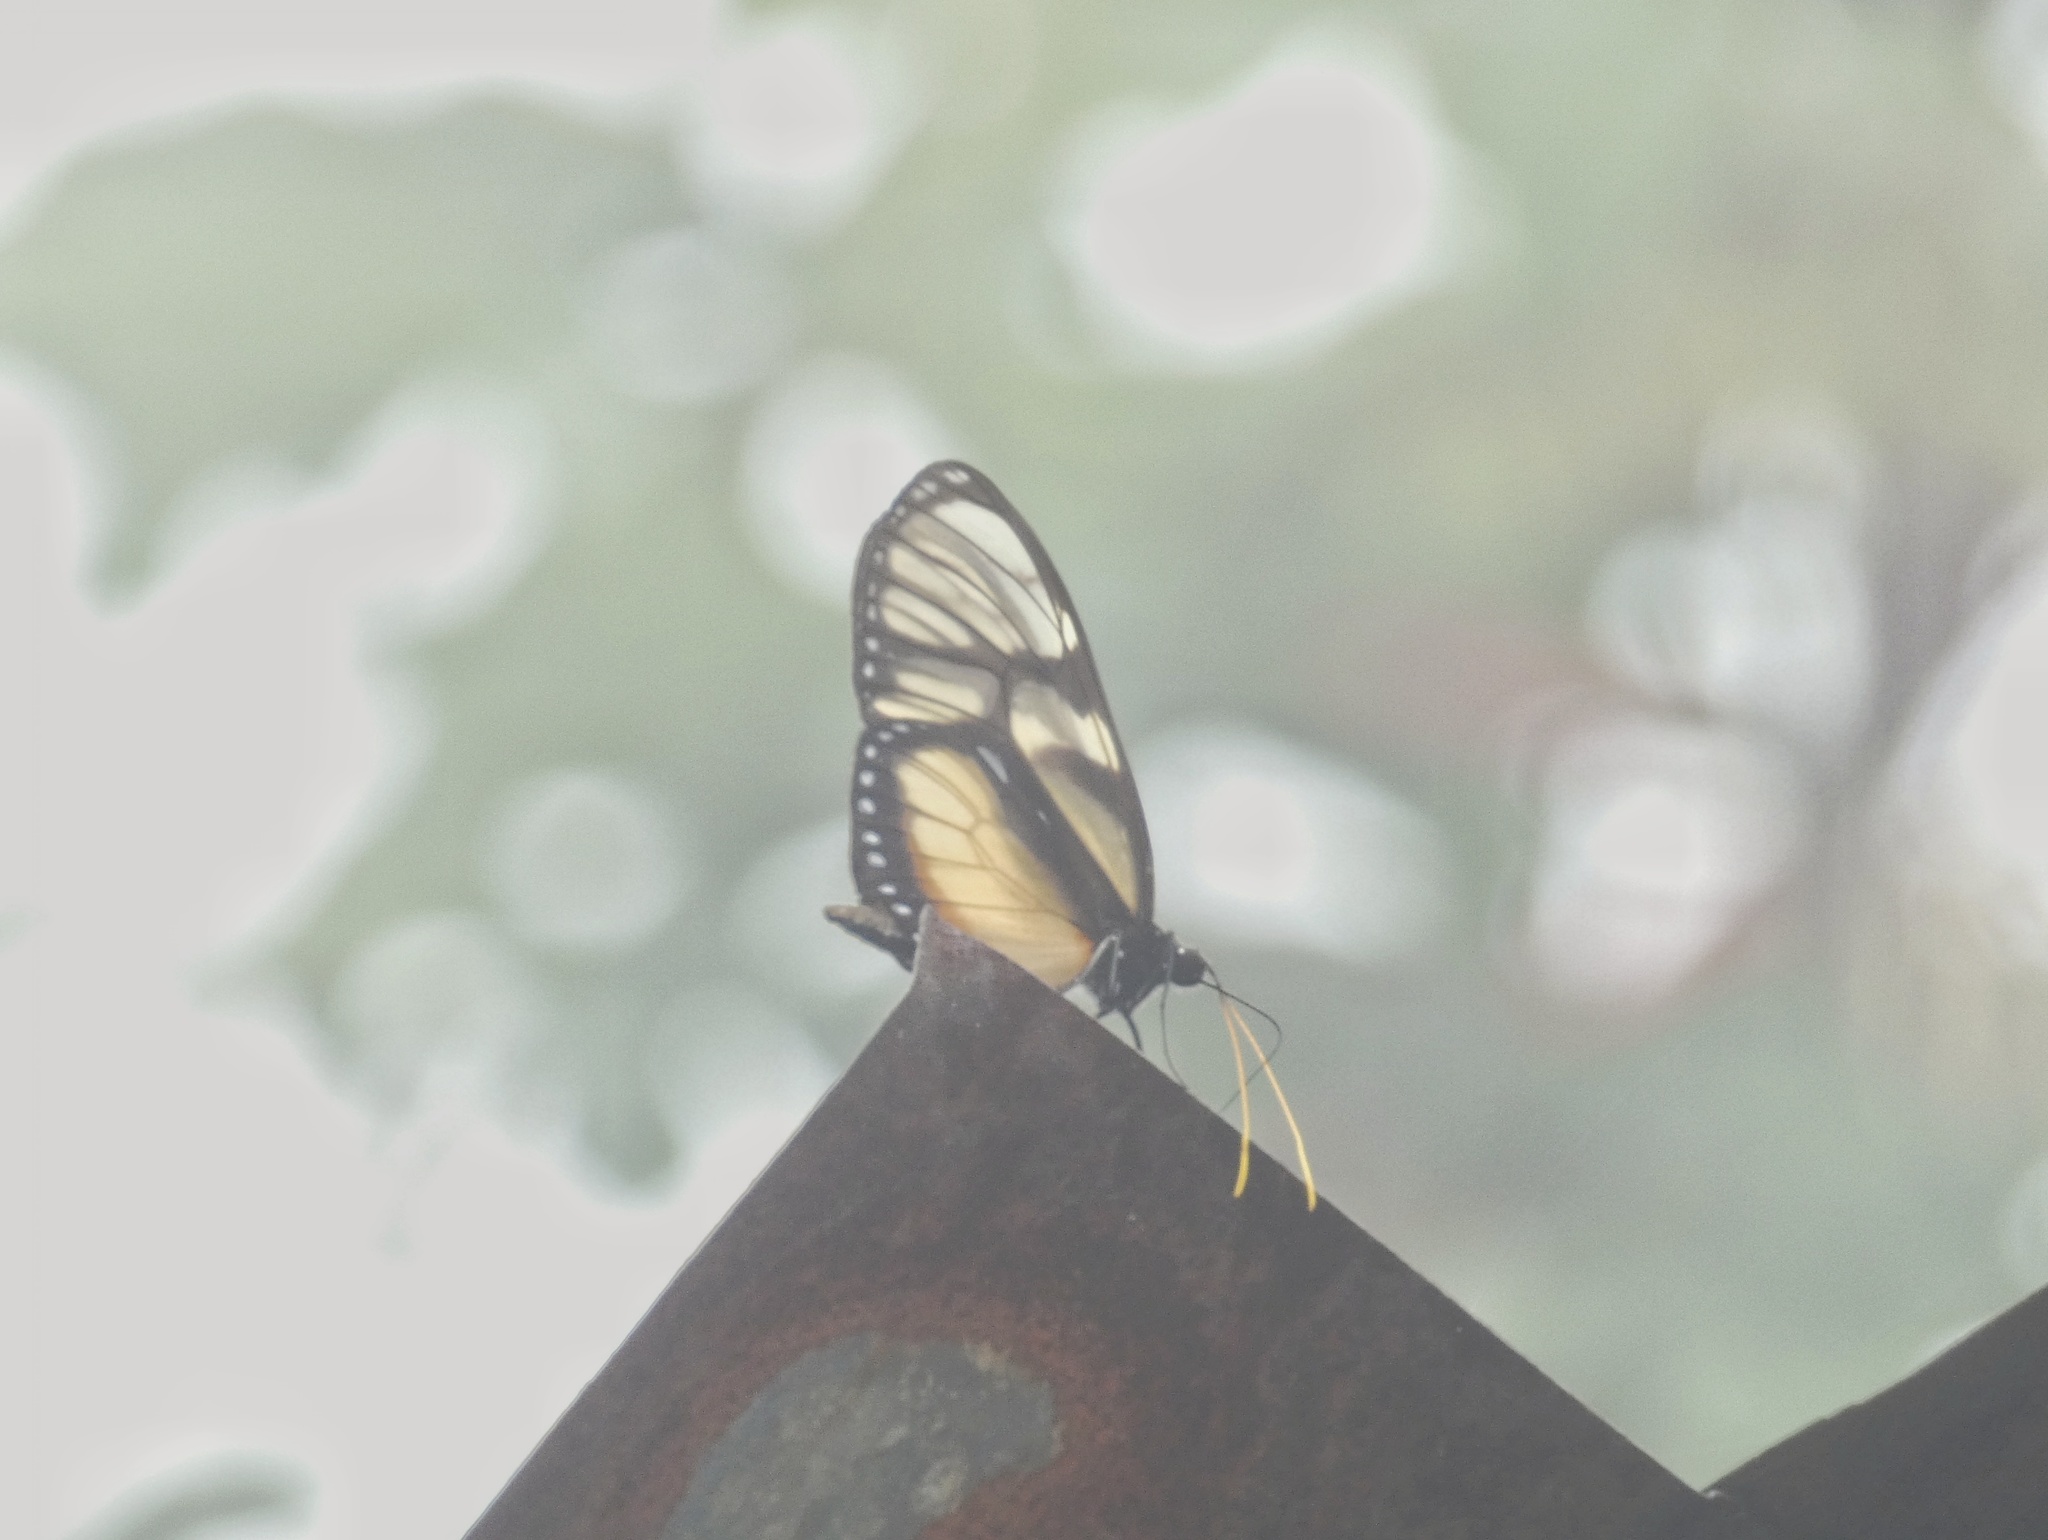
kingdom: Animalia
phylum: Arthropoda
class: Insecta
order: Lepidoptera
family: Nymphalidae
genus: Olyras
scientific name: Olyras insignis
